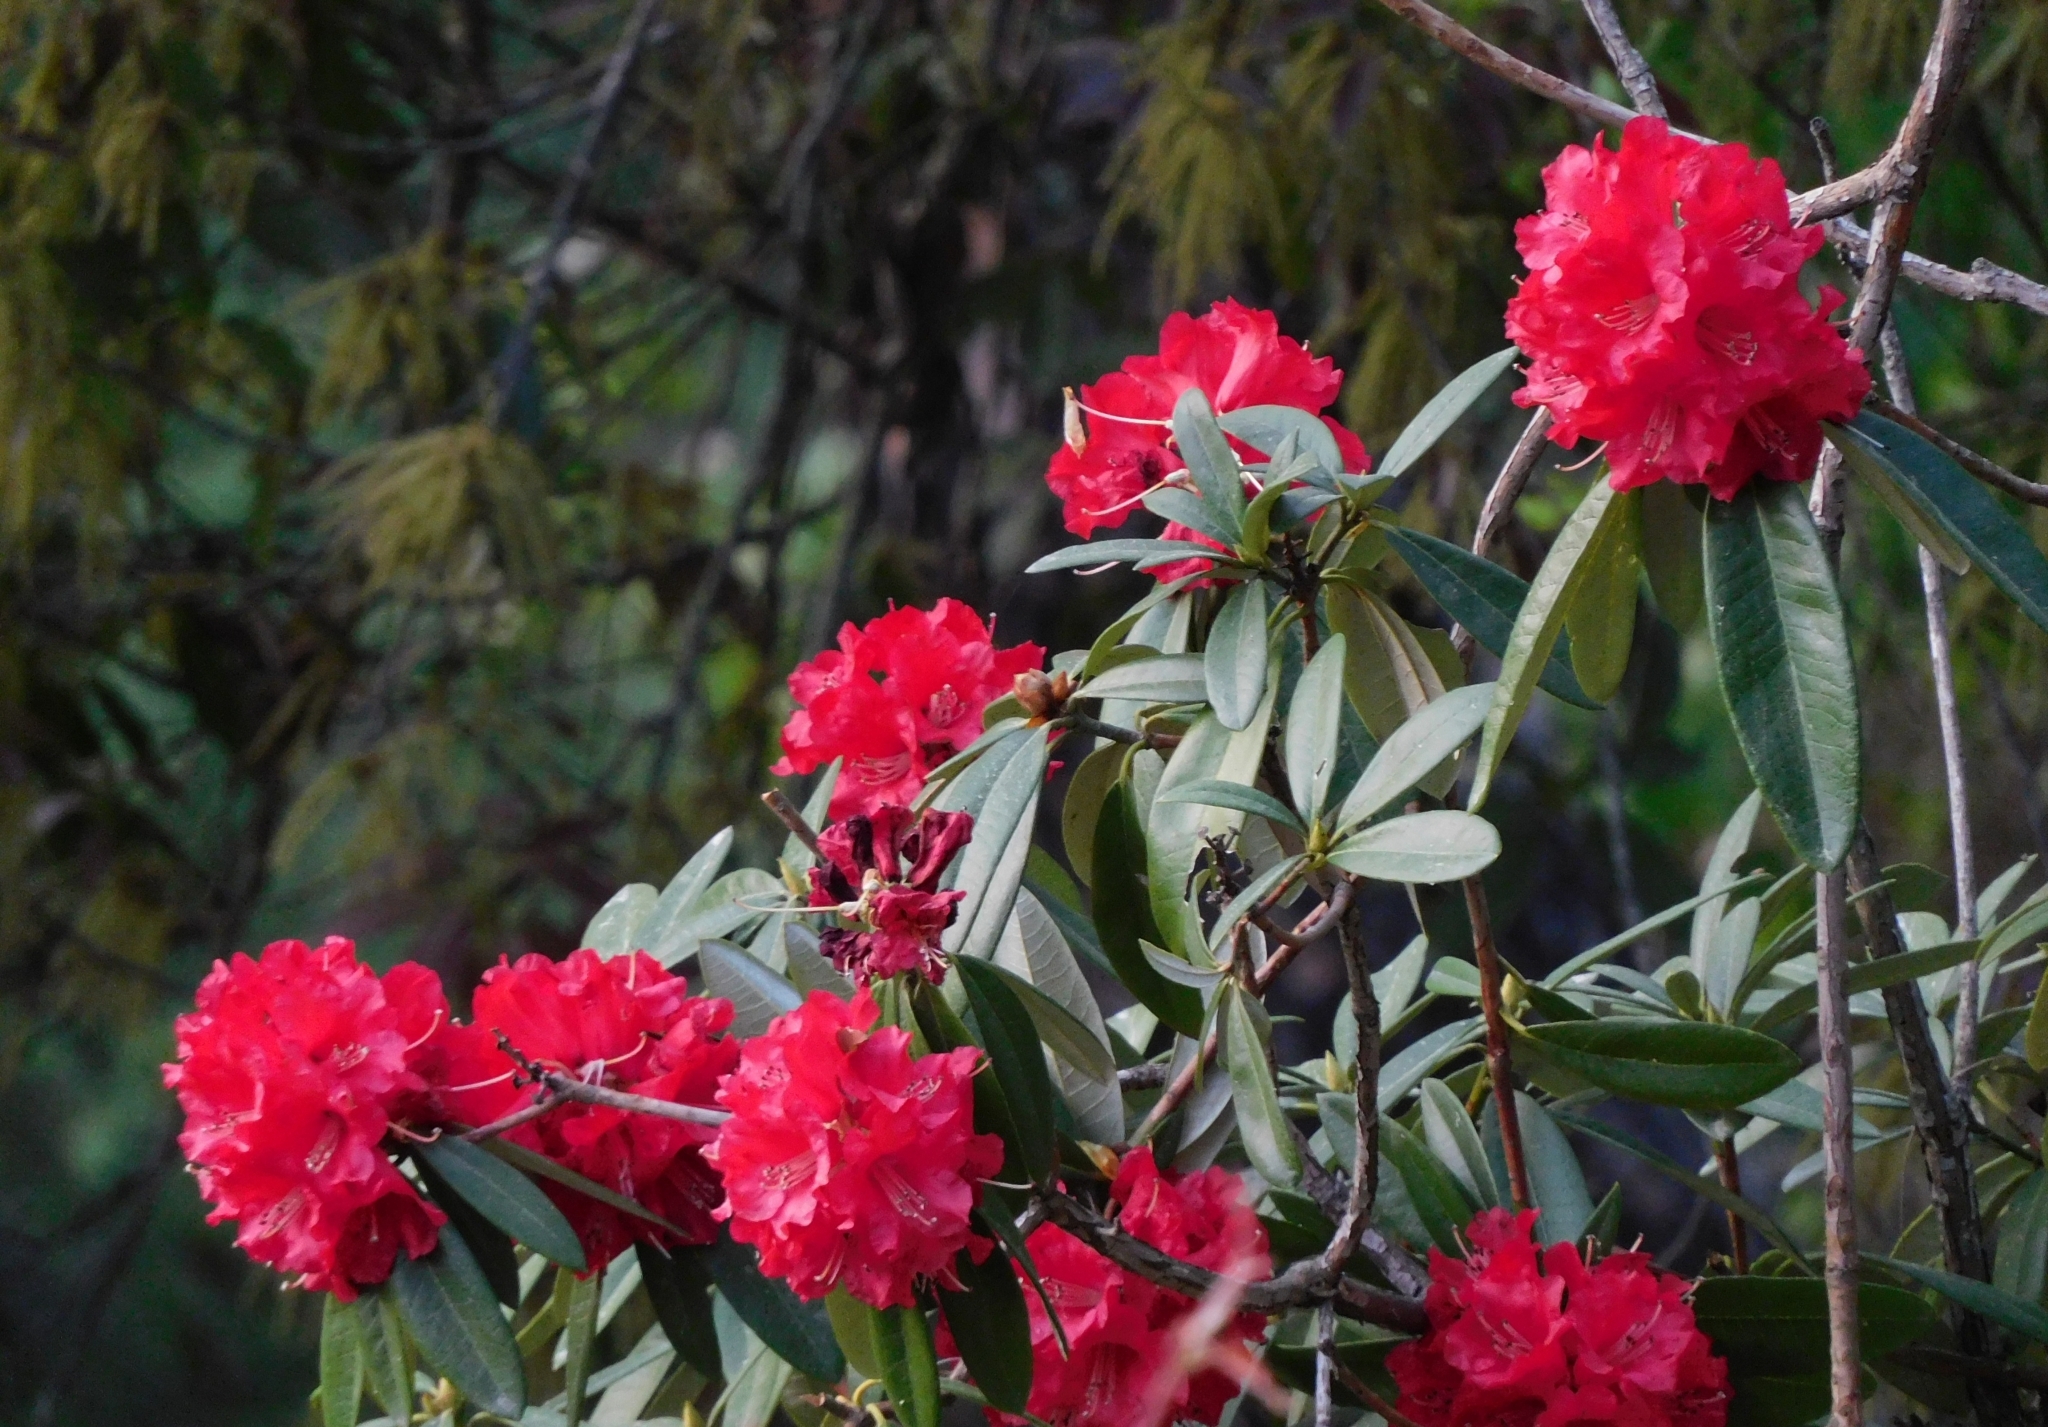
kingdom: Plantae
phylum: Tracheophyta
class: Magnoliopsida
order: Ericales
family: Ericaceae
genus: Rhododendron
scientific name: Rhododendron arboreum
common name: Tree rhododendron
